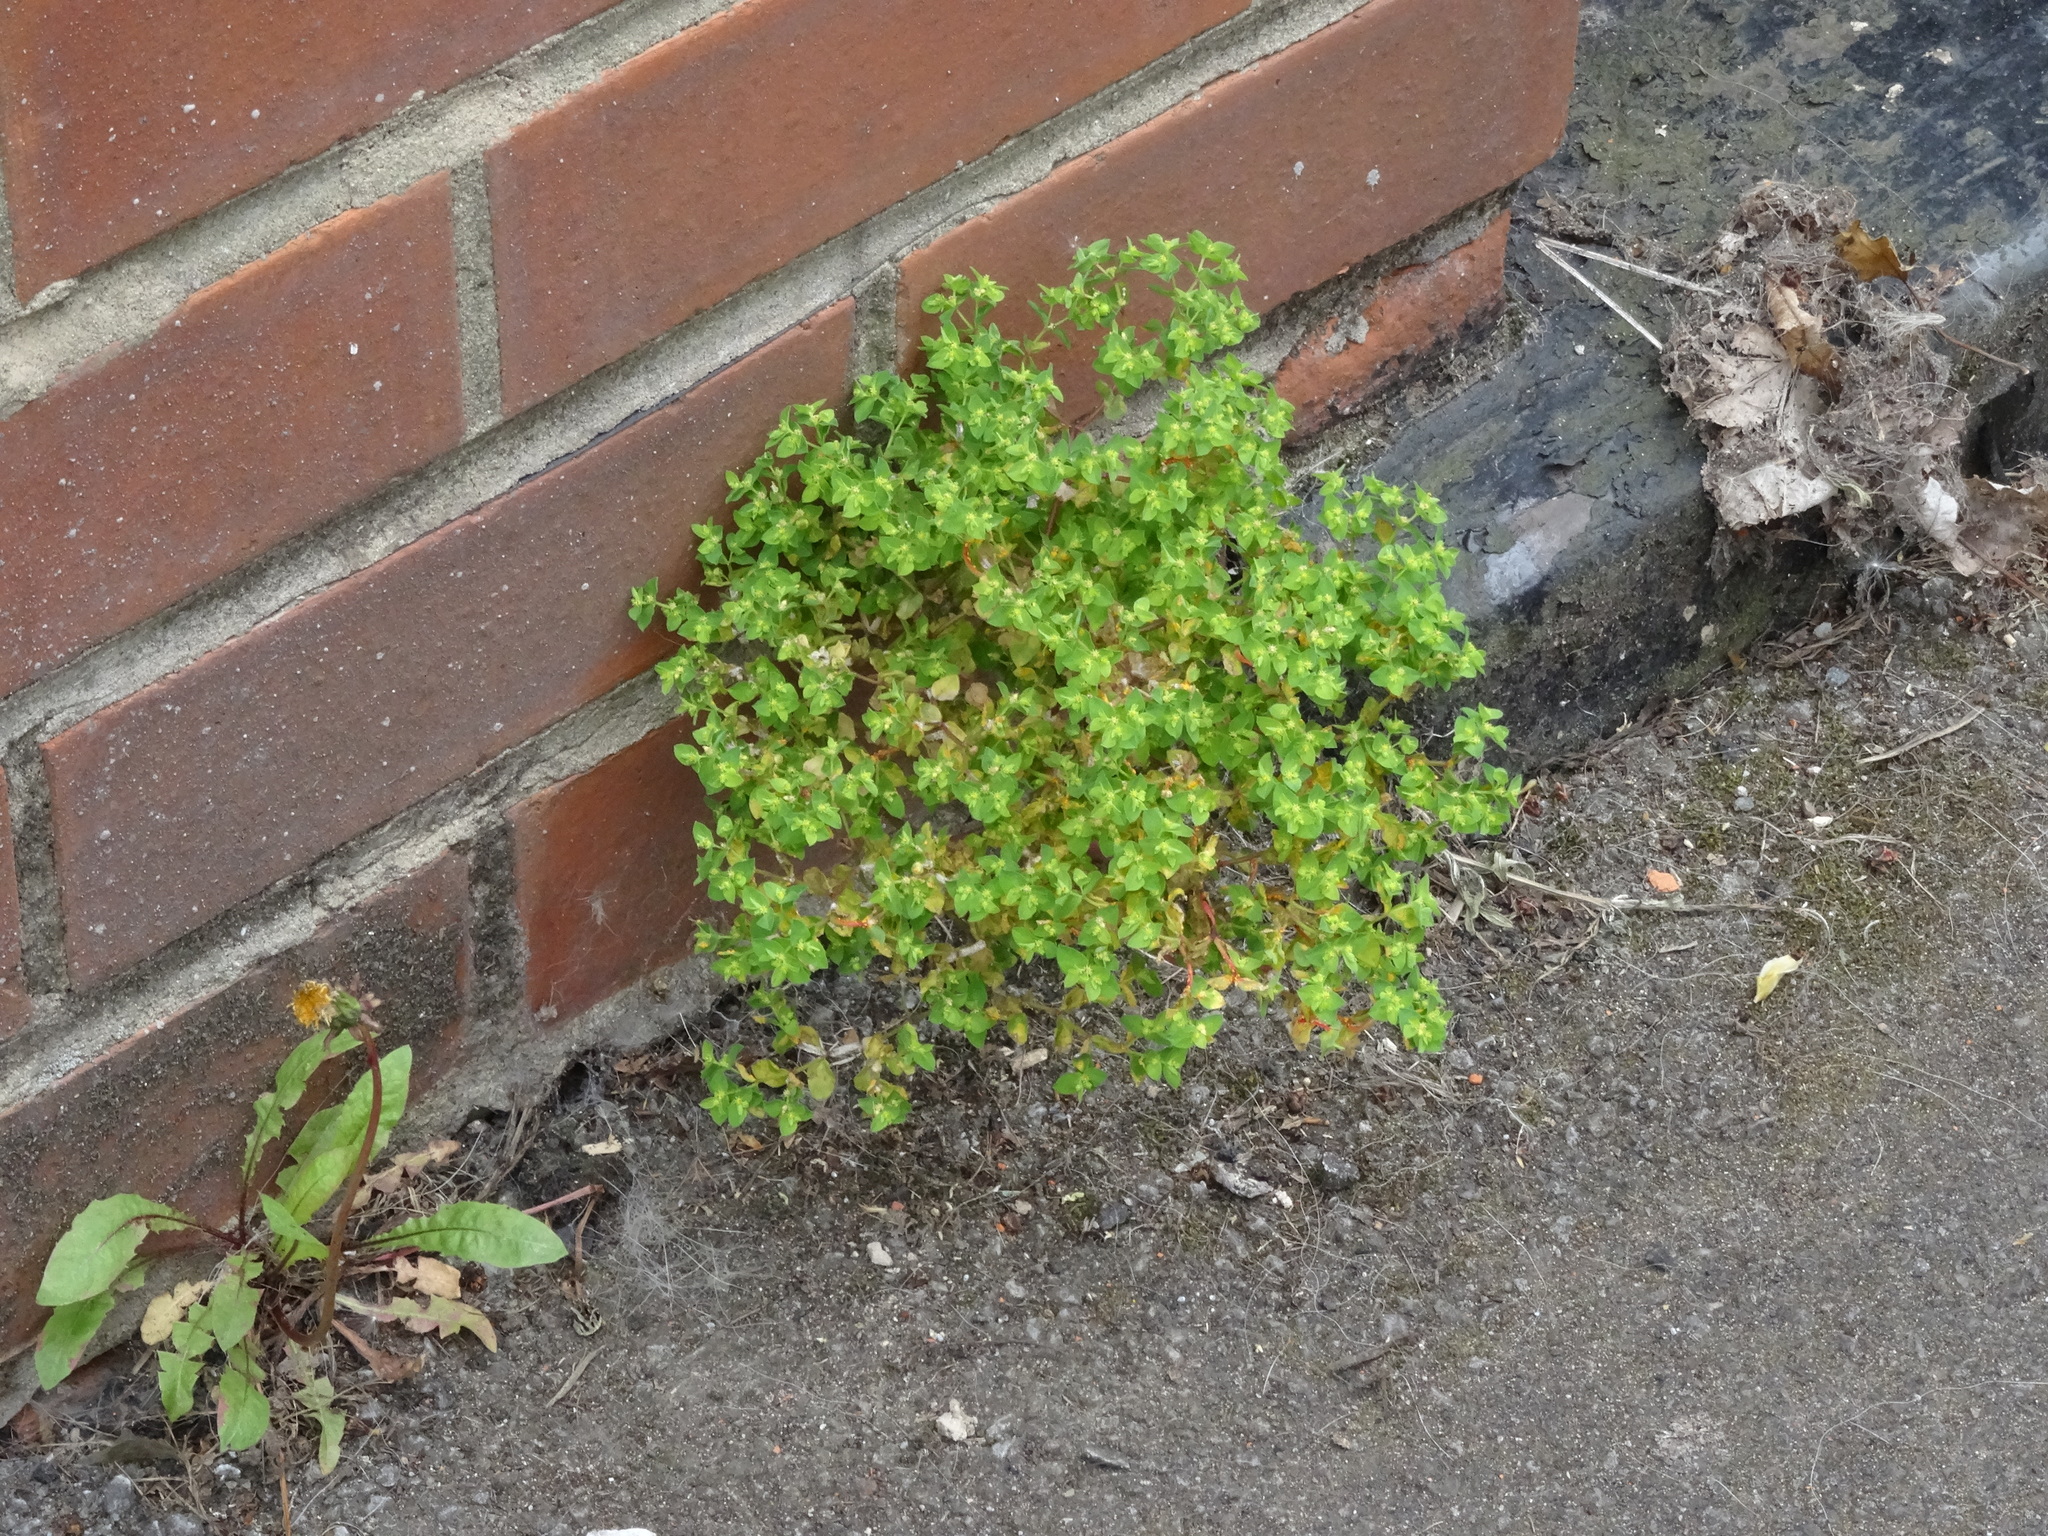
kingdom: Plantae
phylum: Tracheophyta
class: Magnoliopsida
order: Malpighiales
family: Euphorbiaceae
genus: Euphorbia
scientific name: Euphorbia peplus
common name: Petty spurge
